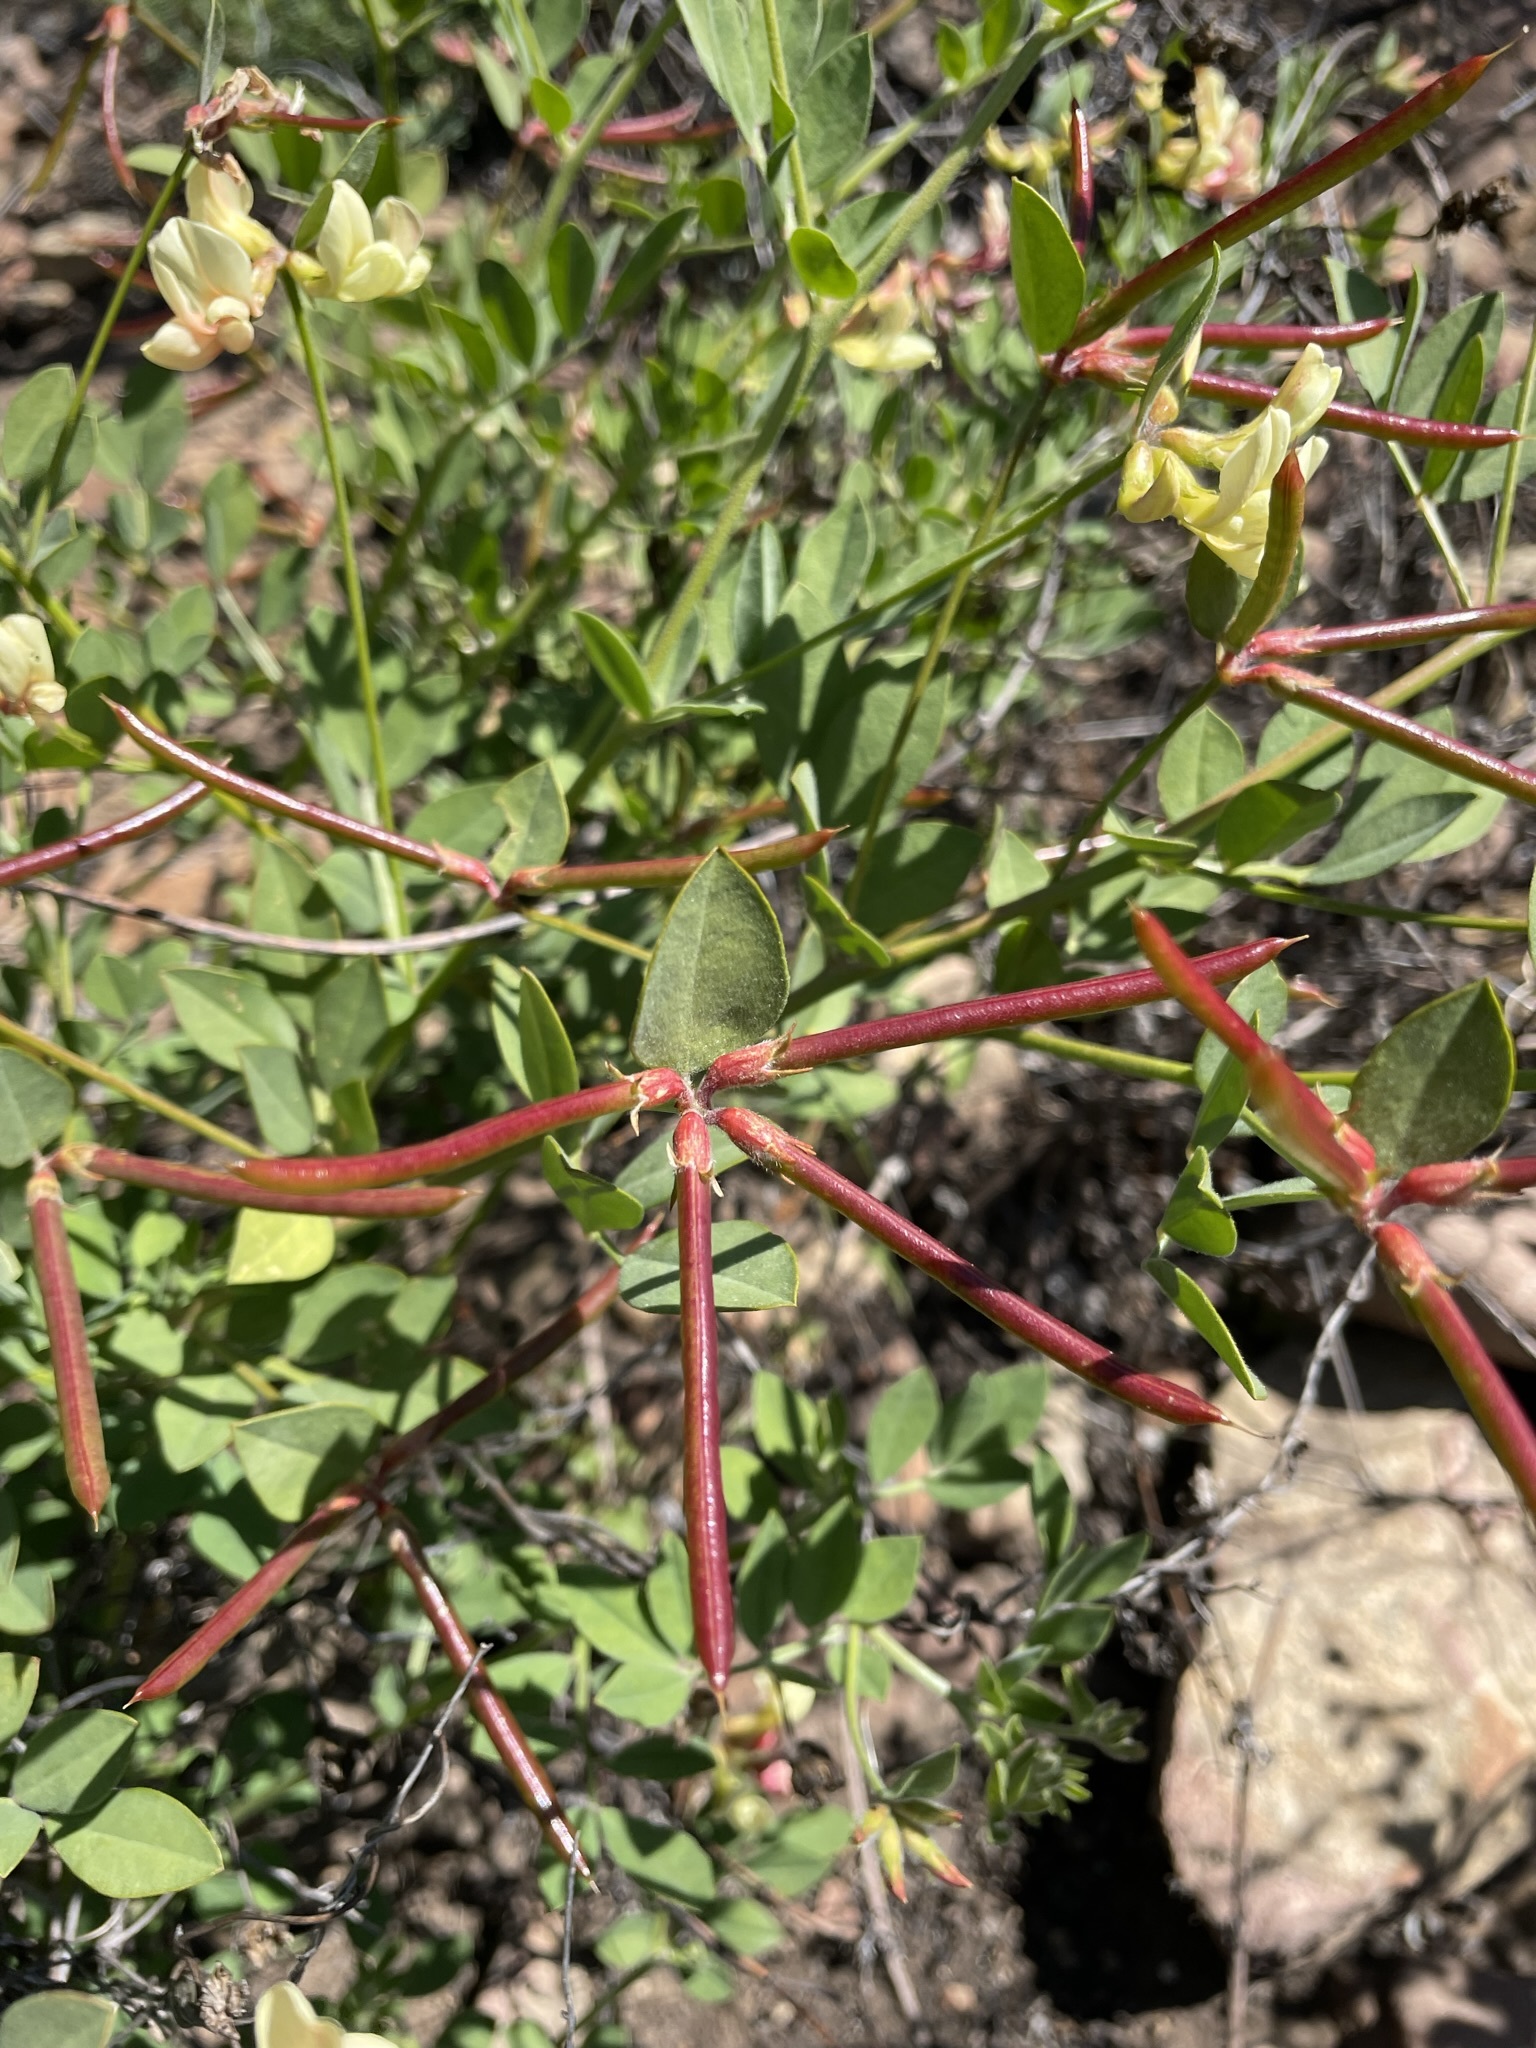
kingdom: Plantae
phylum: Tracheophyta
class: Magnoliopsida
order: Fabales
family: Fabaceae
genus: Acmispon
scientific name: Acmispon grandiflorus
